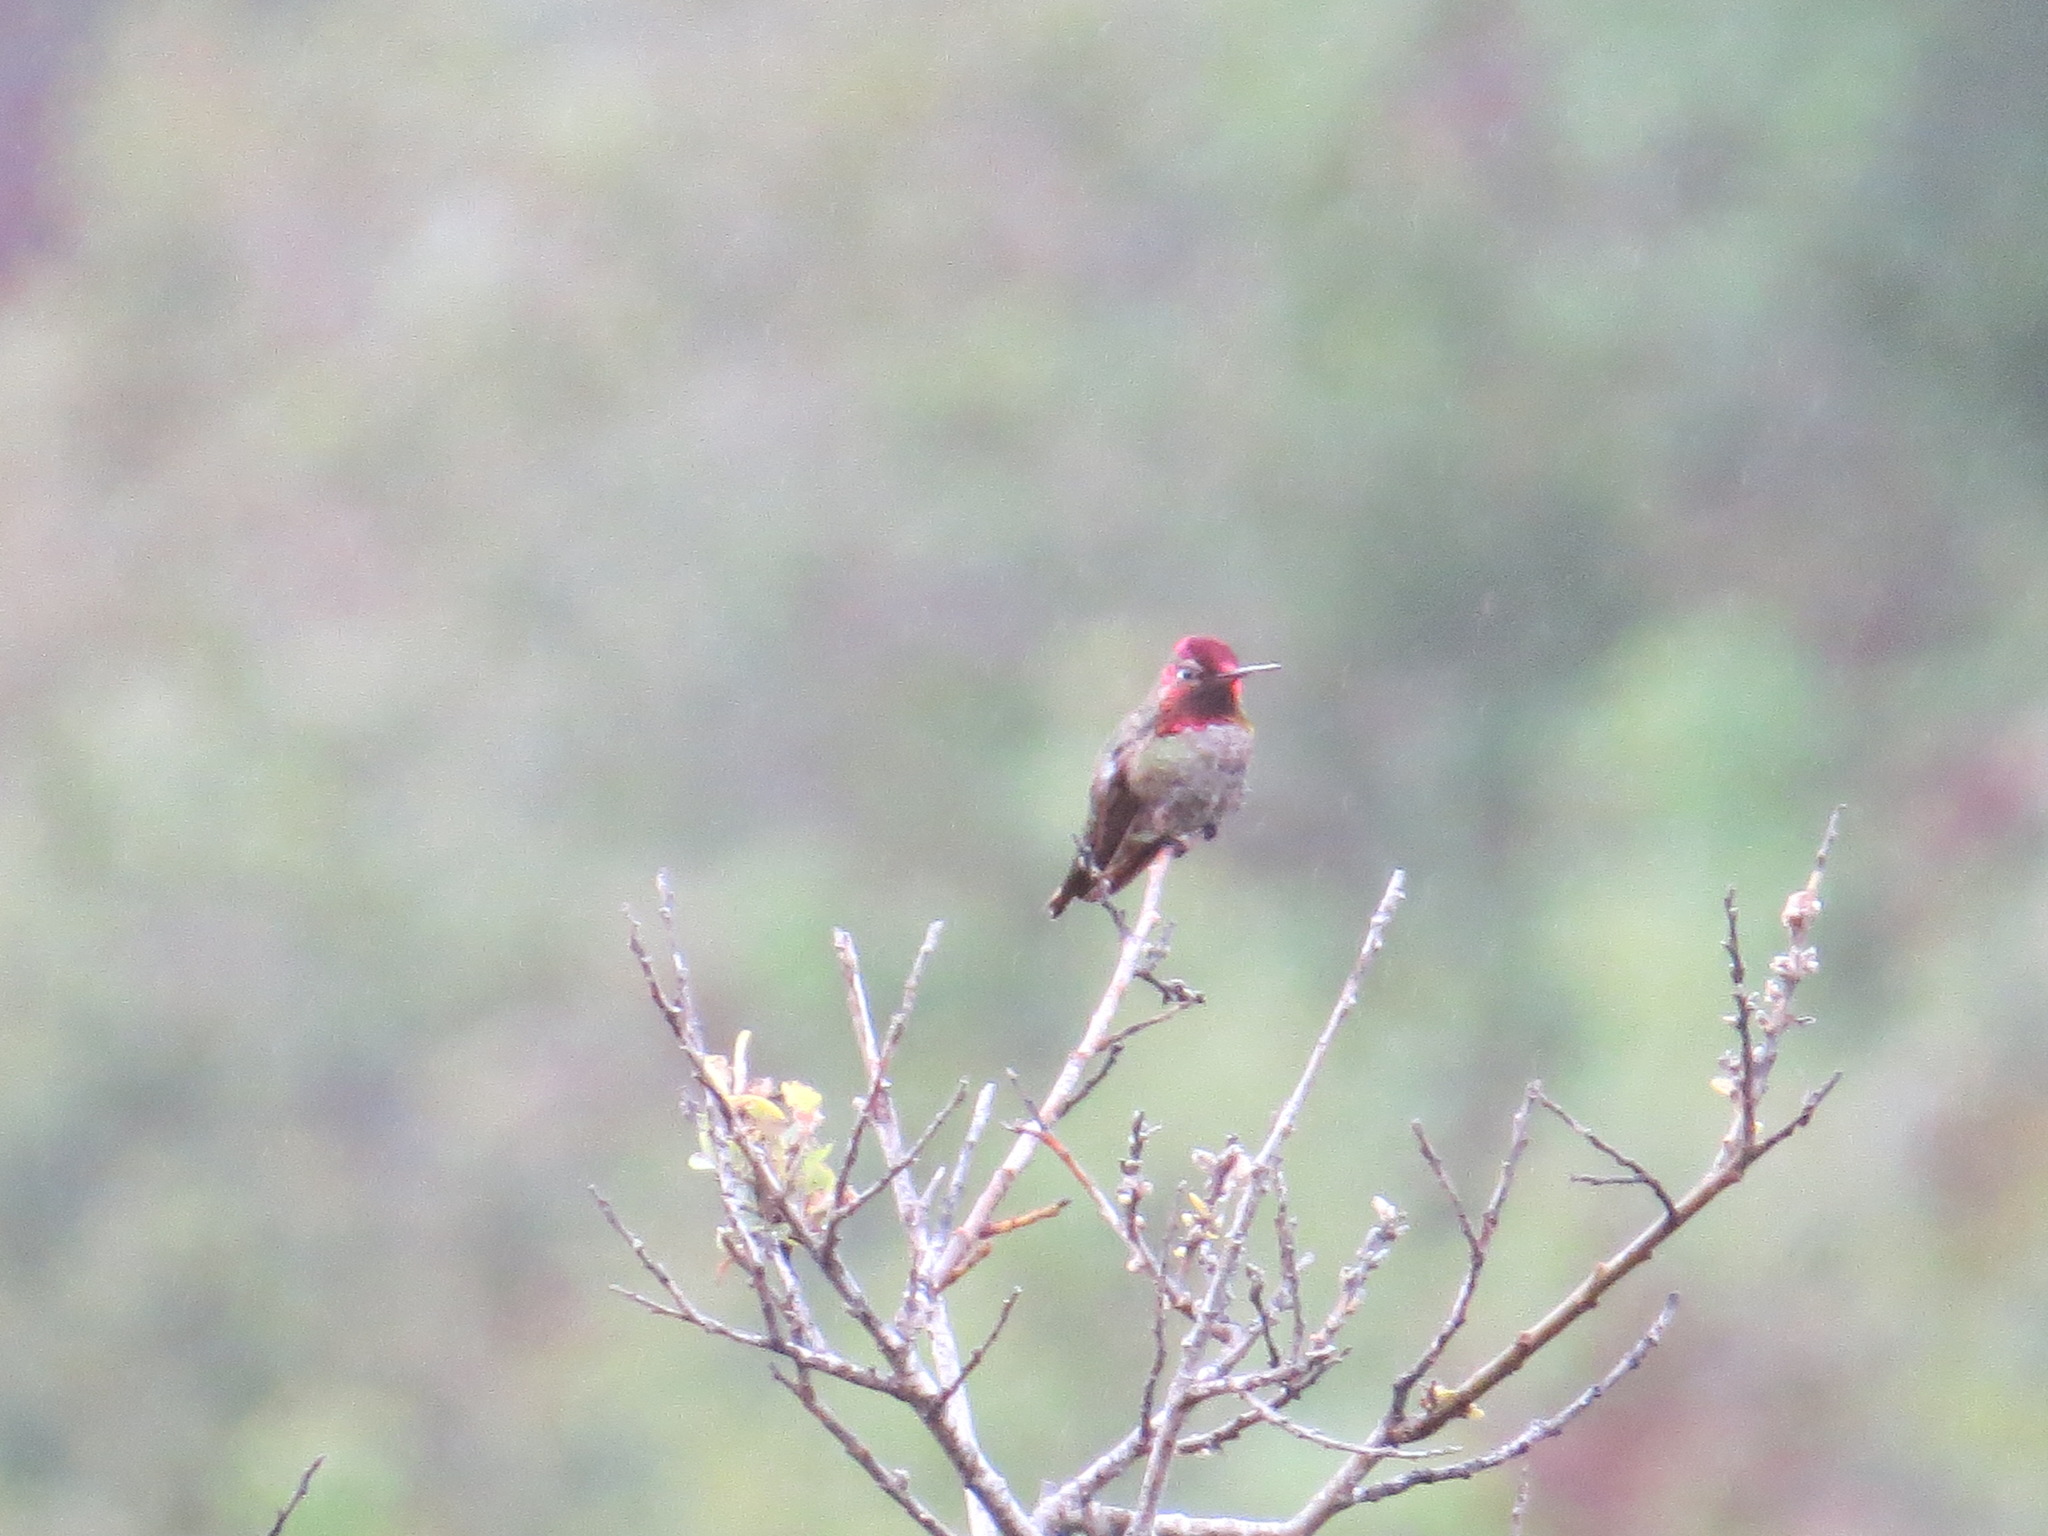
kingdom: Animalia
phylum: Chordata
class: Aves
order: Apodiformes
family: Trochilidae
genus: Calypte
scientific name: Calypte anna
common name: Anna's hummingbird
